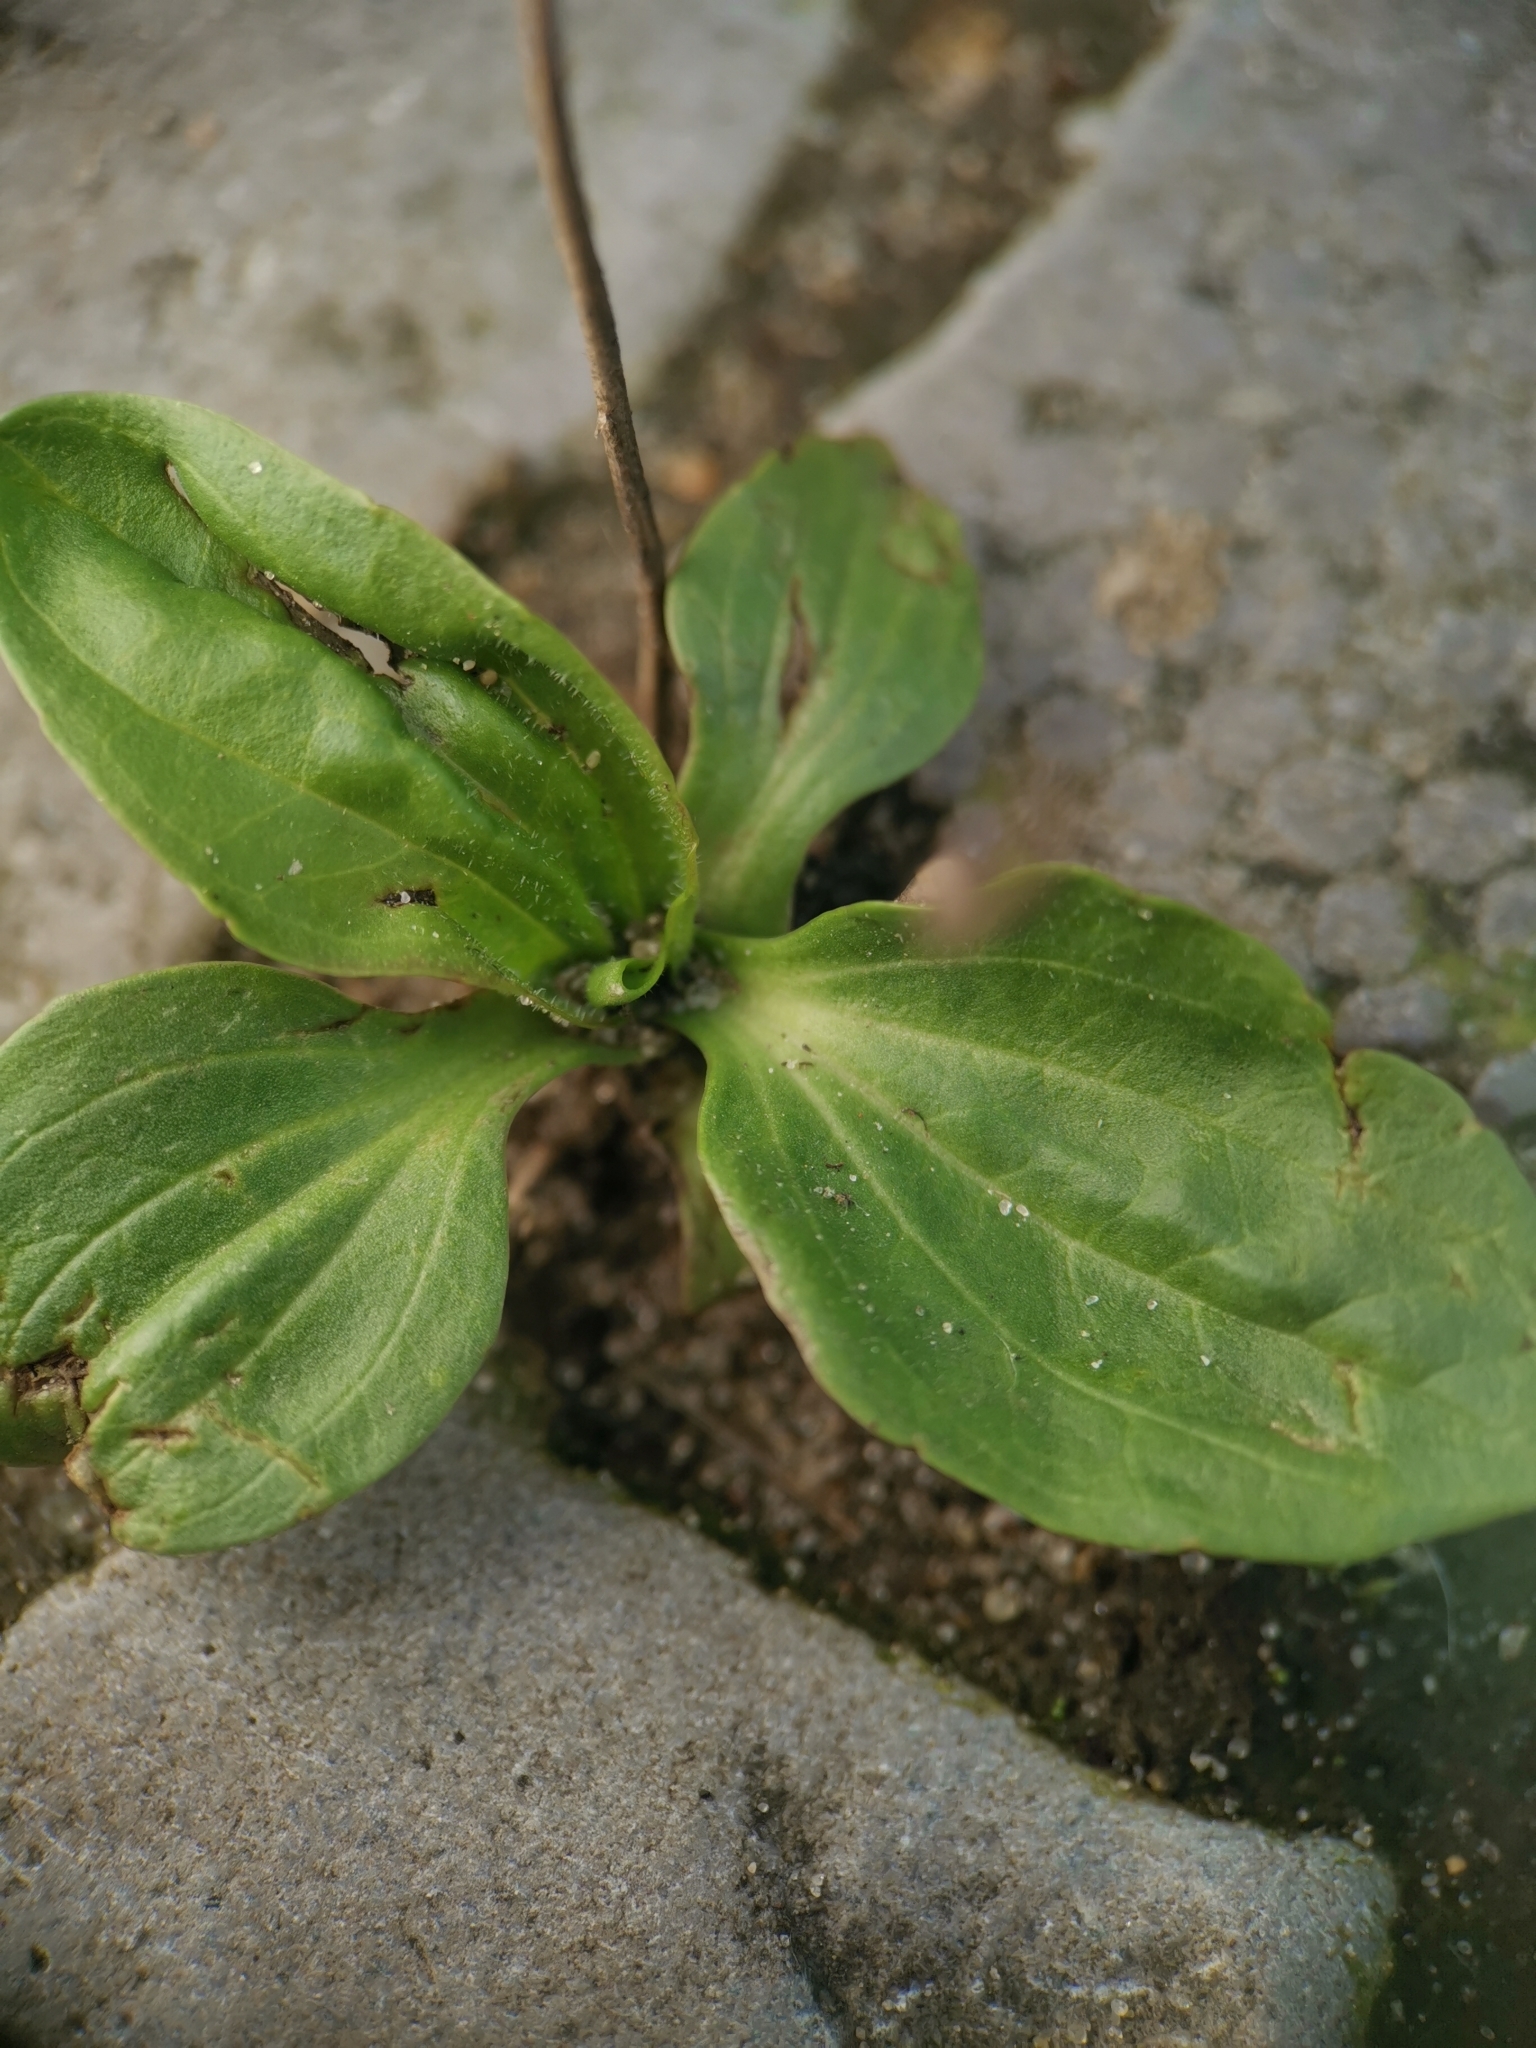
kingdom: Plantae
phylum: Tracheophyta
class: Magnoliopsida
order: Lamiales
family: Plantaginaceae
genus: Plantago
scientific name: Plantago major
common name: Common plantain
